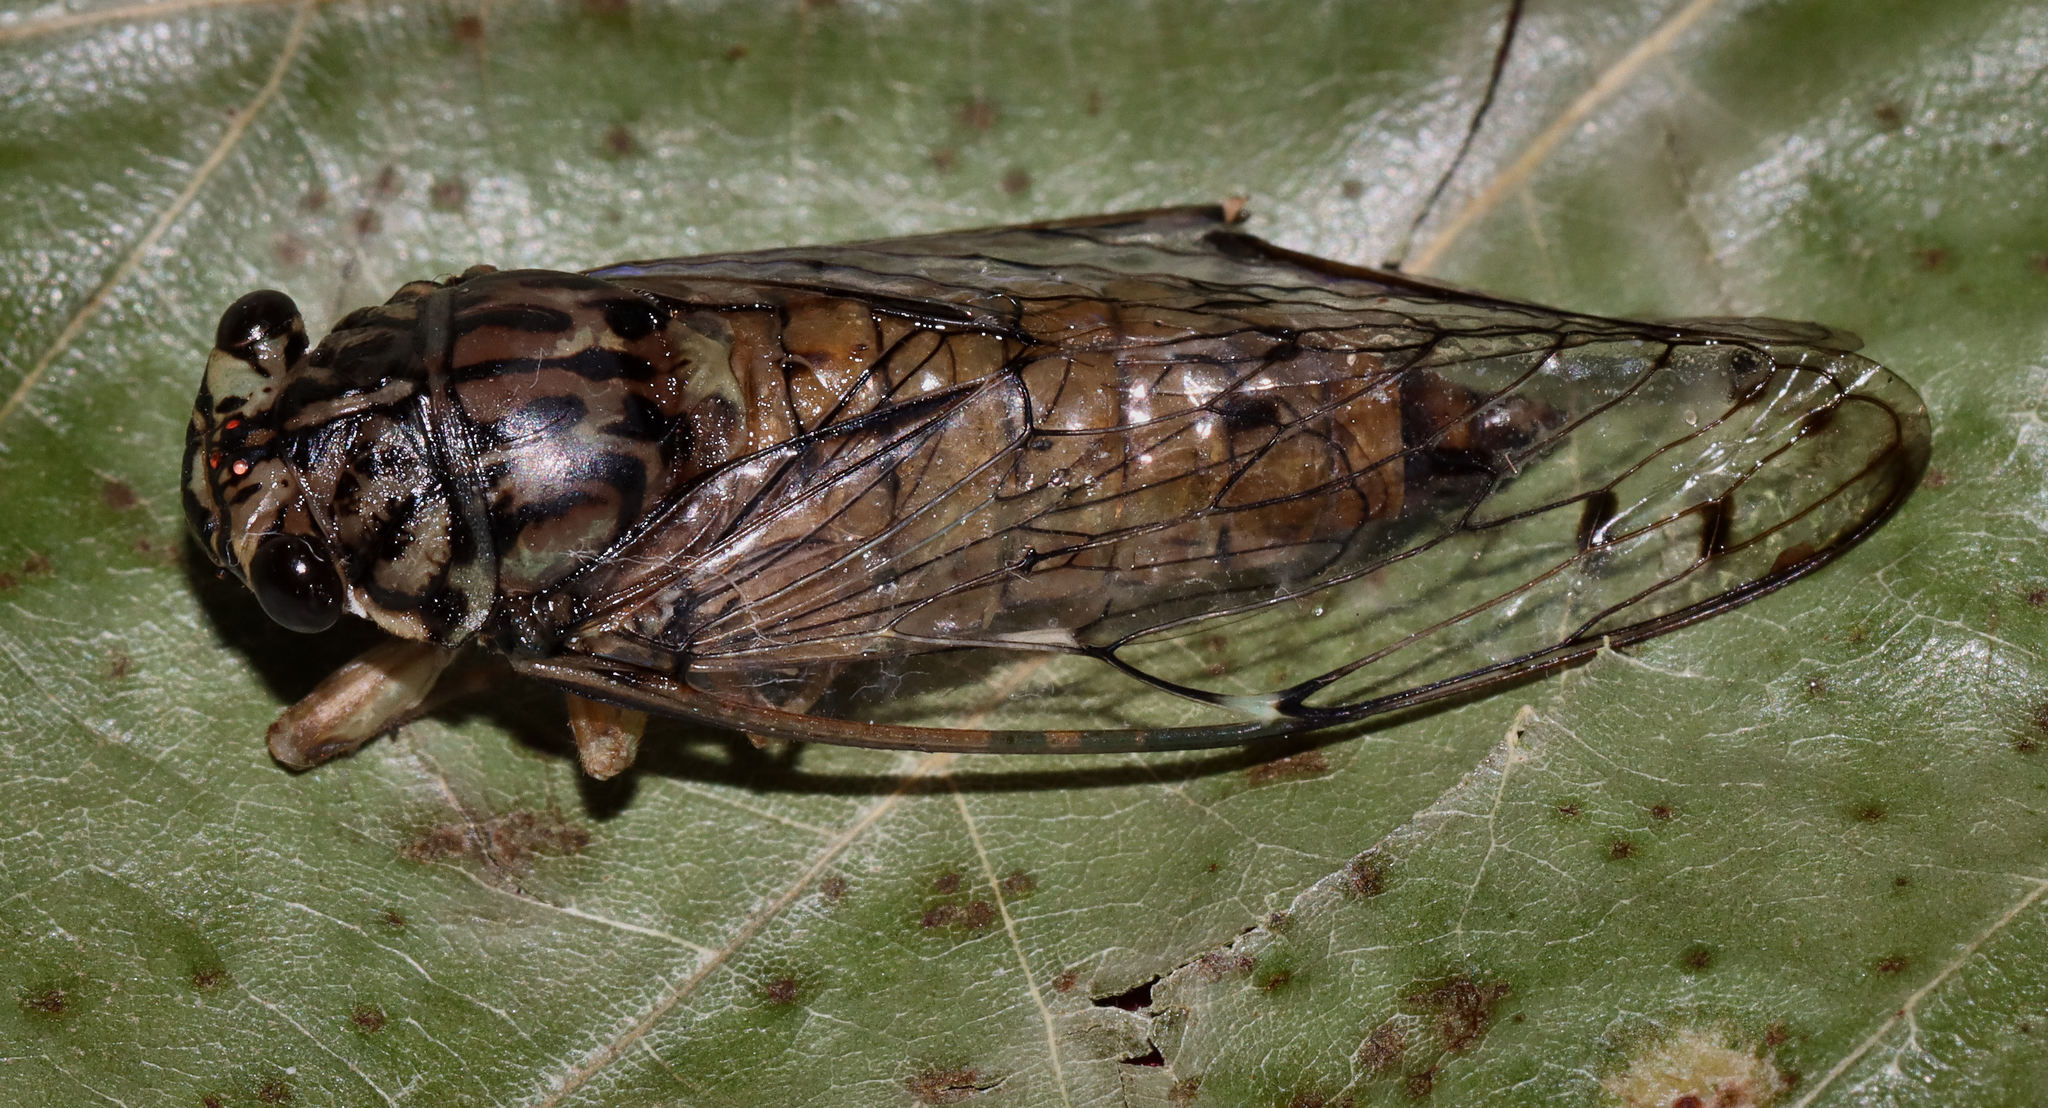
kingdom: Animalia
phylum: Arthropoda
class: Insecta
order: Hemiptera
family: Cicadidae
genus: Neocicada
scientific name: Neocicada hieroglyphica
